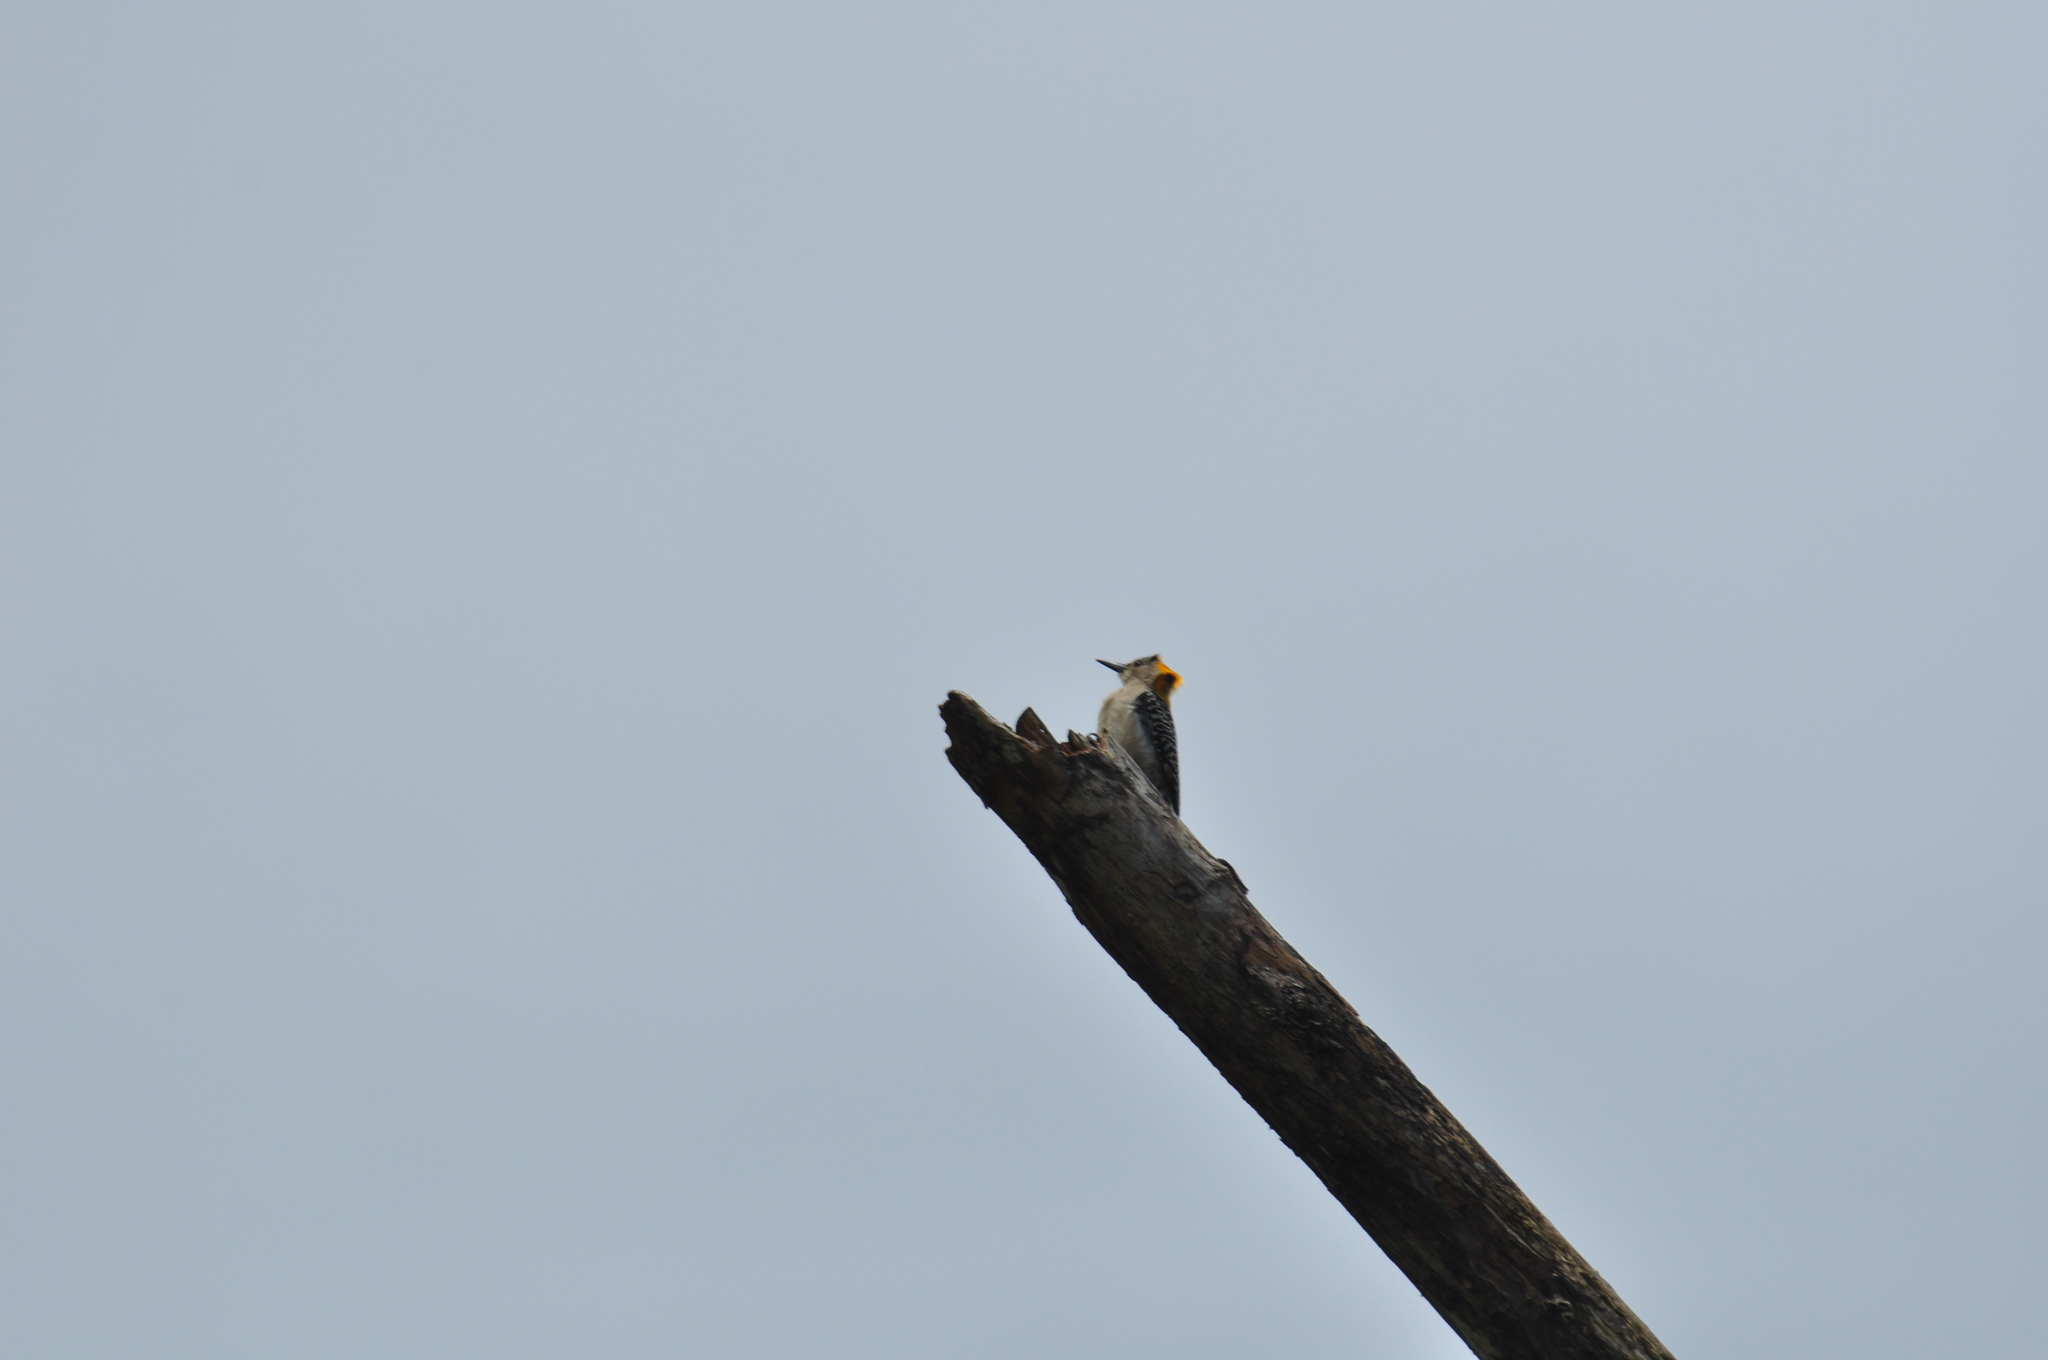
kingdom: Animalia
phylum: Chordata
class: Aves
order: Piciformes
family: Picidae
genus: Melanerpes
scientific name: Melanerpes aurifrons
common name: Golden-fronted woodpecker
